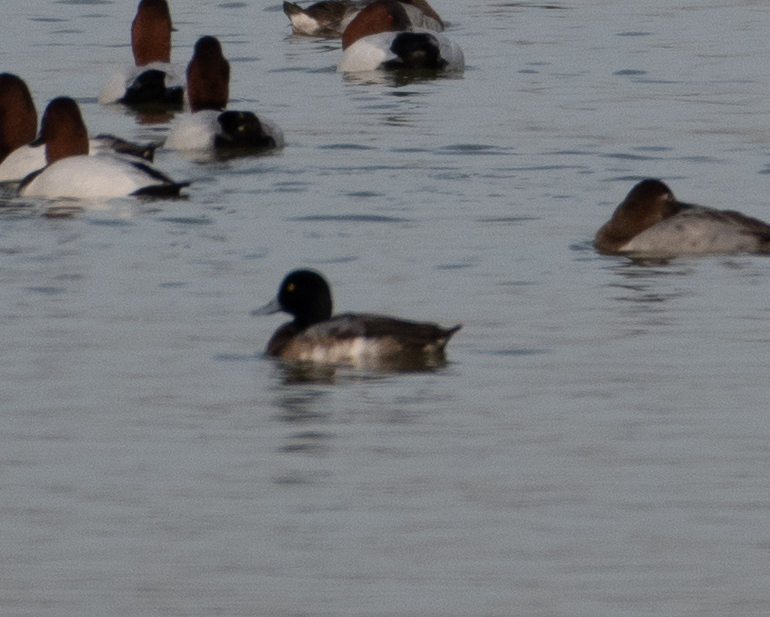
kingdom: Animalia
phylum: Chordata
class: Aves
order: Anseriformes
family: Anatidae
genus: Aythya
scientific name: Aythya affinis
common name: Lesser scaup
